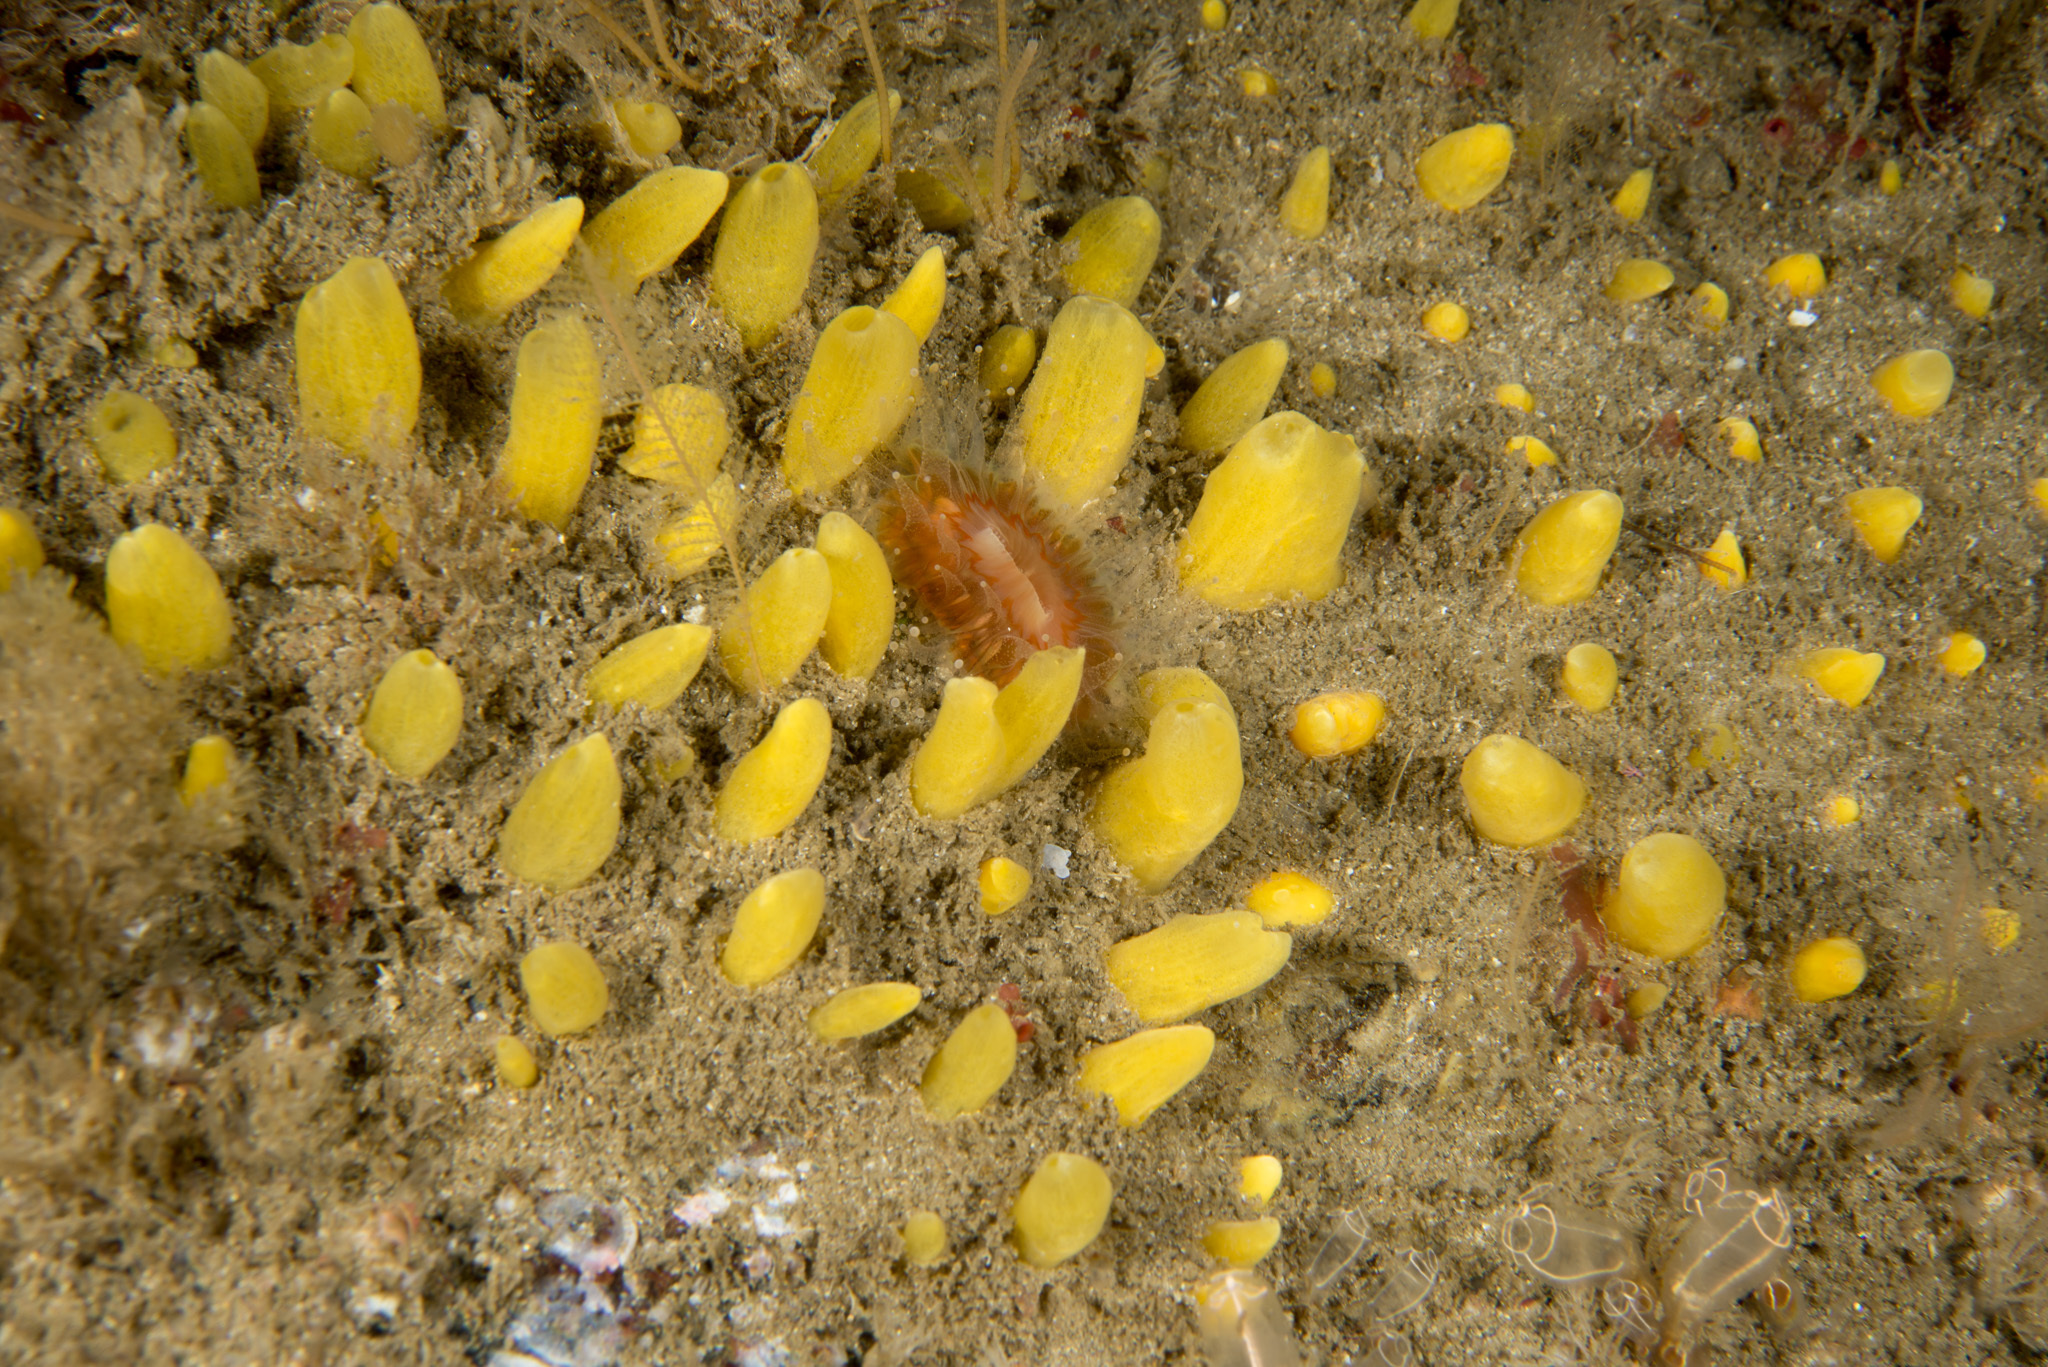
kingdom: Animalia
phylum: Porifera
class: Demospongiae
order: Polymastiida
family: Polymastiidae
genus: Sphaerotylus
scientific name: Sphaerotylus renoufi
